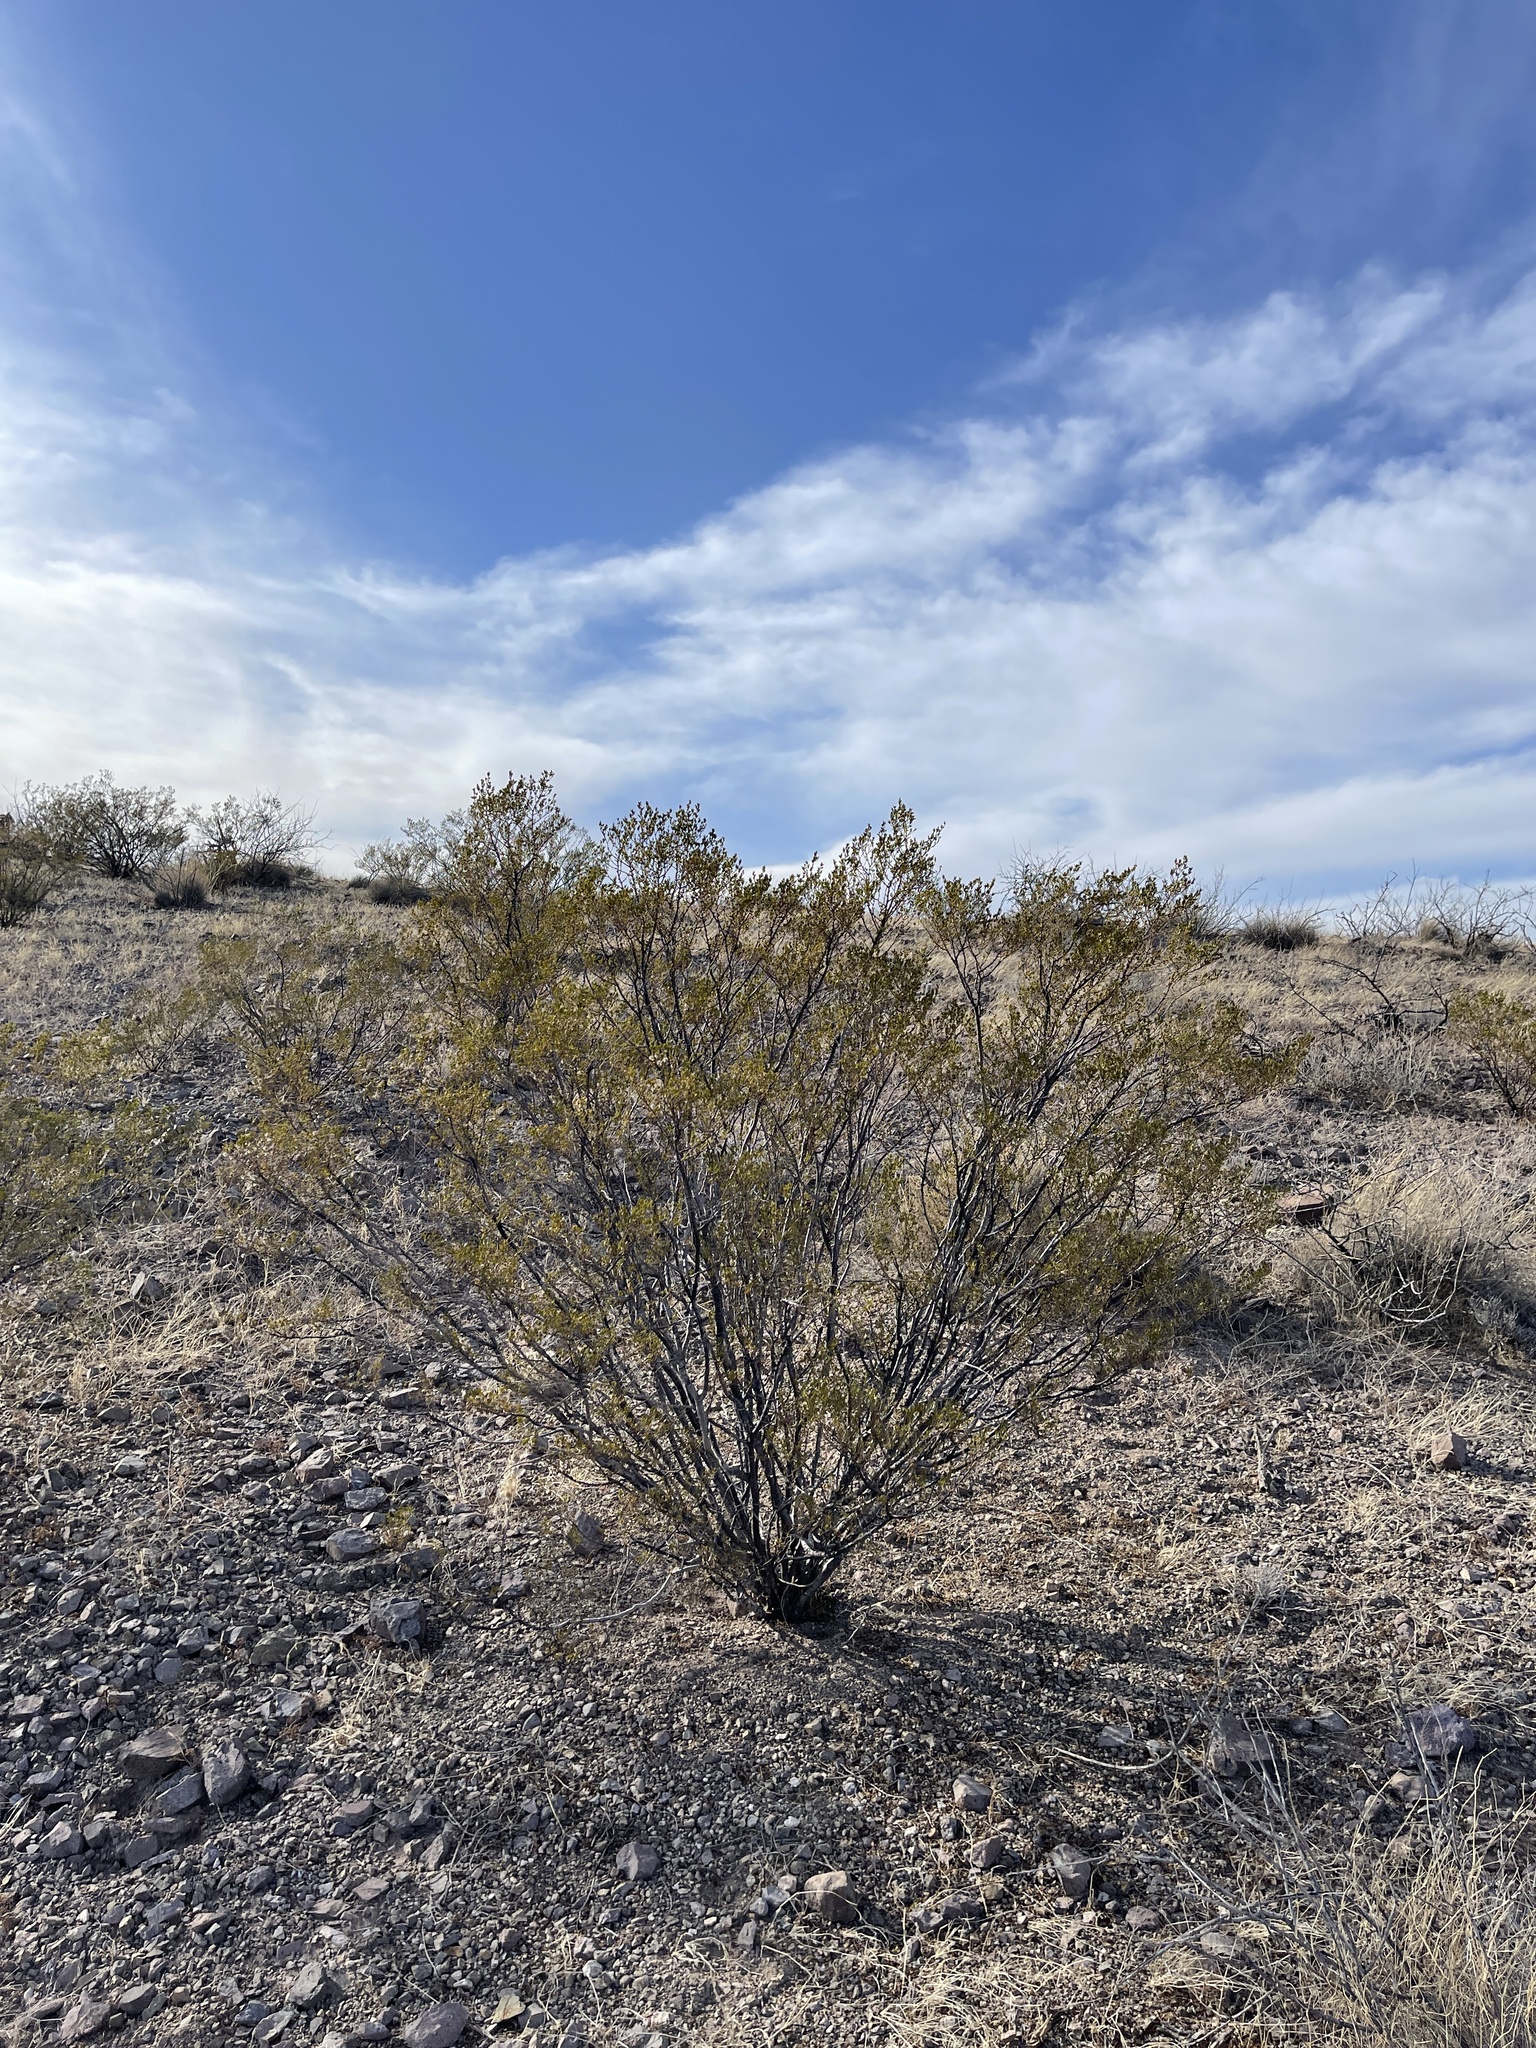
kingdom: Plantae
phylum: Tracheophyta
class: Magnoliopsida
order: Zygophyllales
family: Zygophyllaceae
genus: Larrea
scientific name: Larrea tridentata
